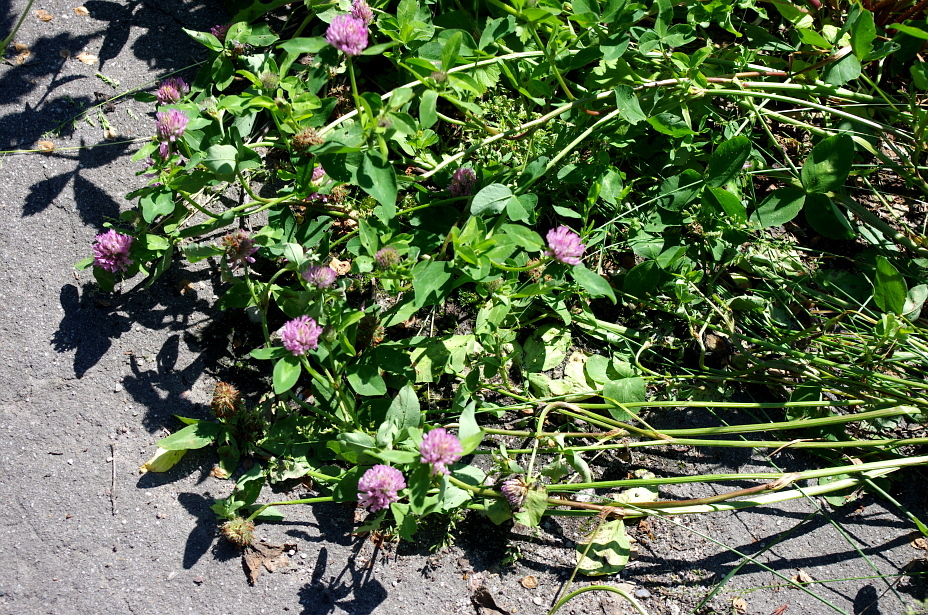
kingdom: Plantae
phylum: Tracheophyta
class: Magnoliopsida
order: Fabales
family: Fabaceae
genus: Trifolium
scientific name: Trifolium pratense
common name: Red clover
